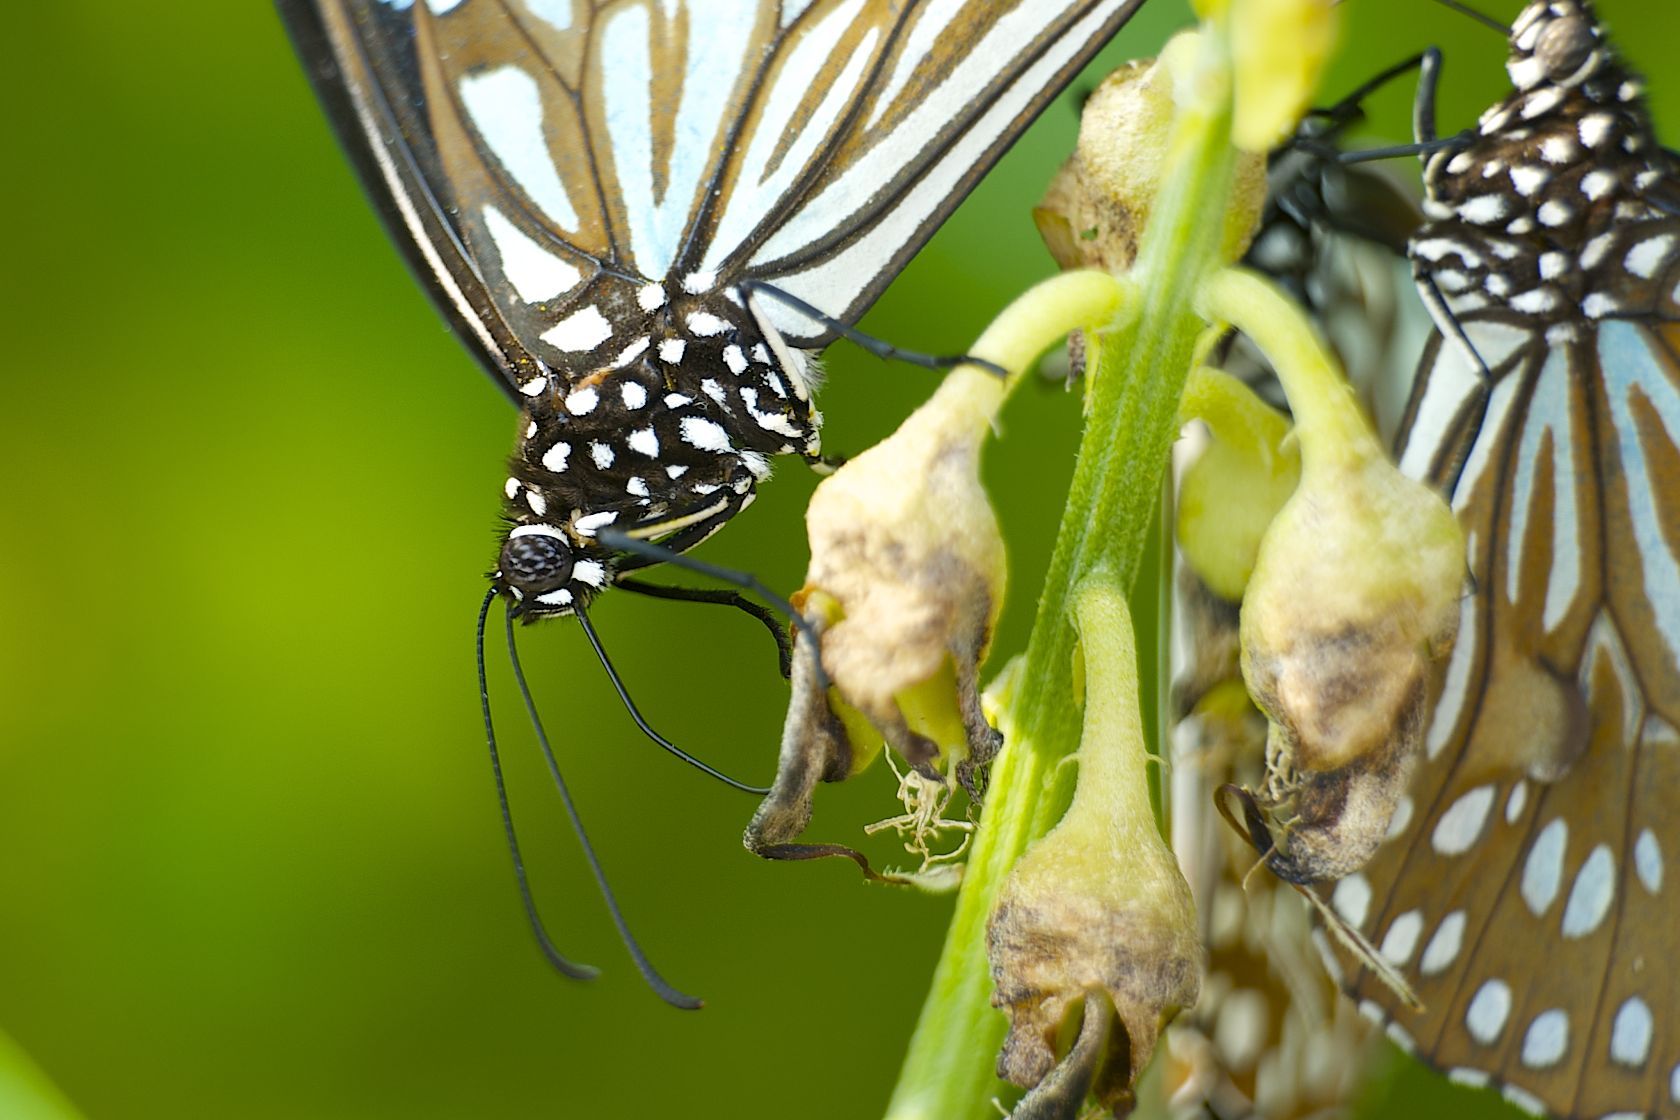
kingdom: Animalia
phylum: Arthropoda
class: Insecta
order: Lepidoptera
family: Nymphalidae
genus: Tirumala
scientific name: Tirumala limniace
